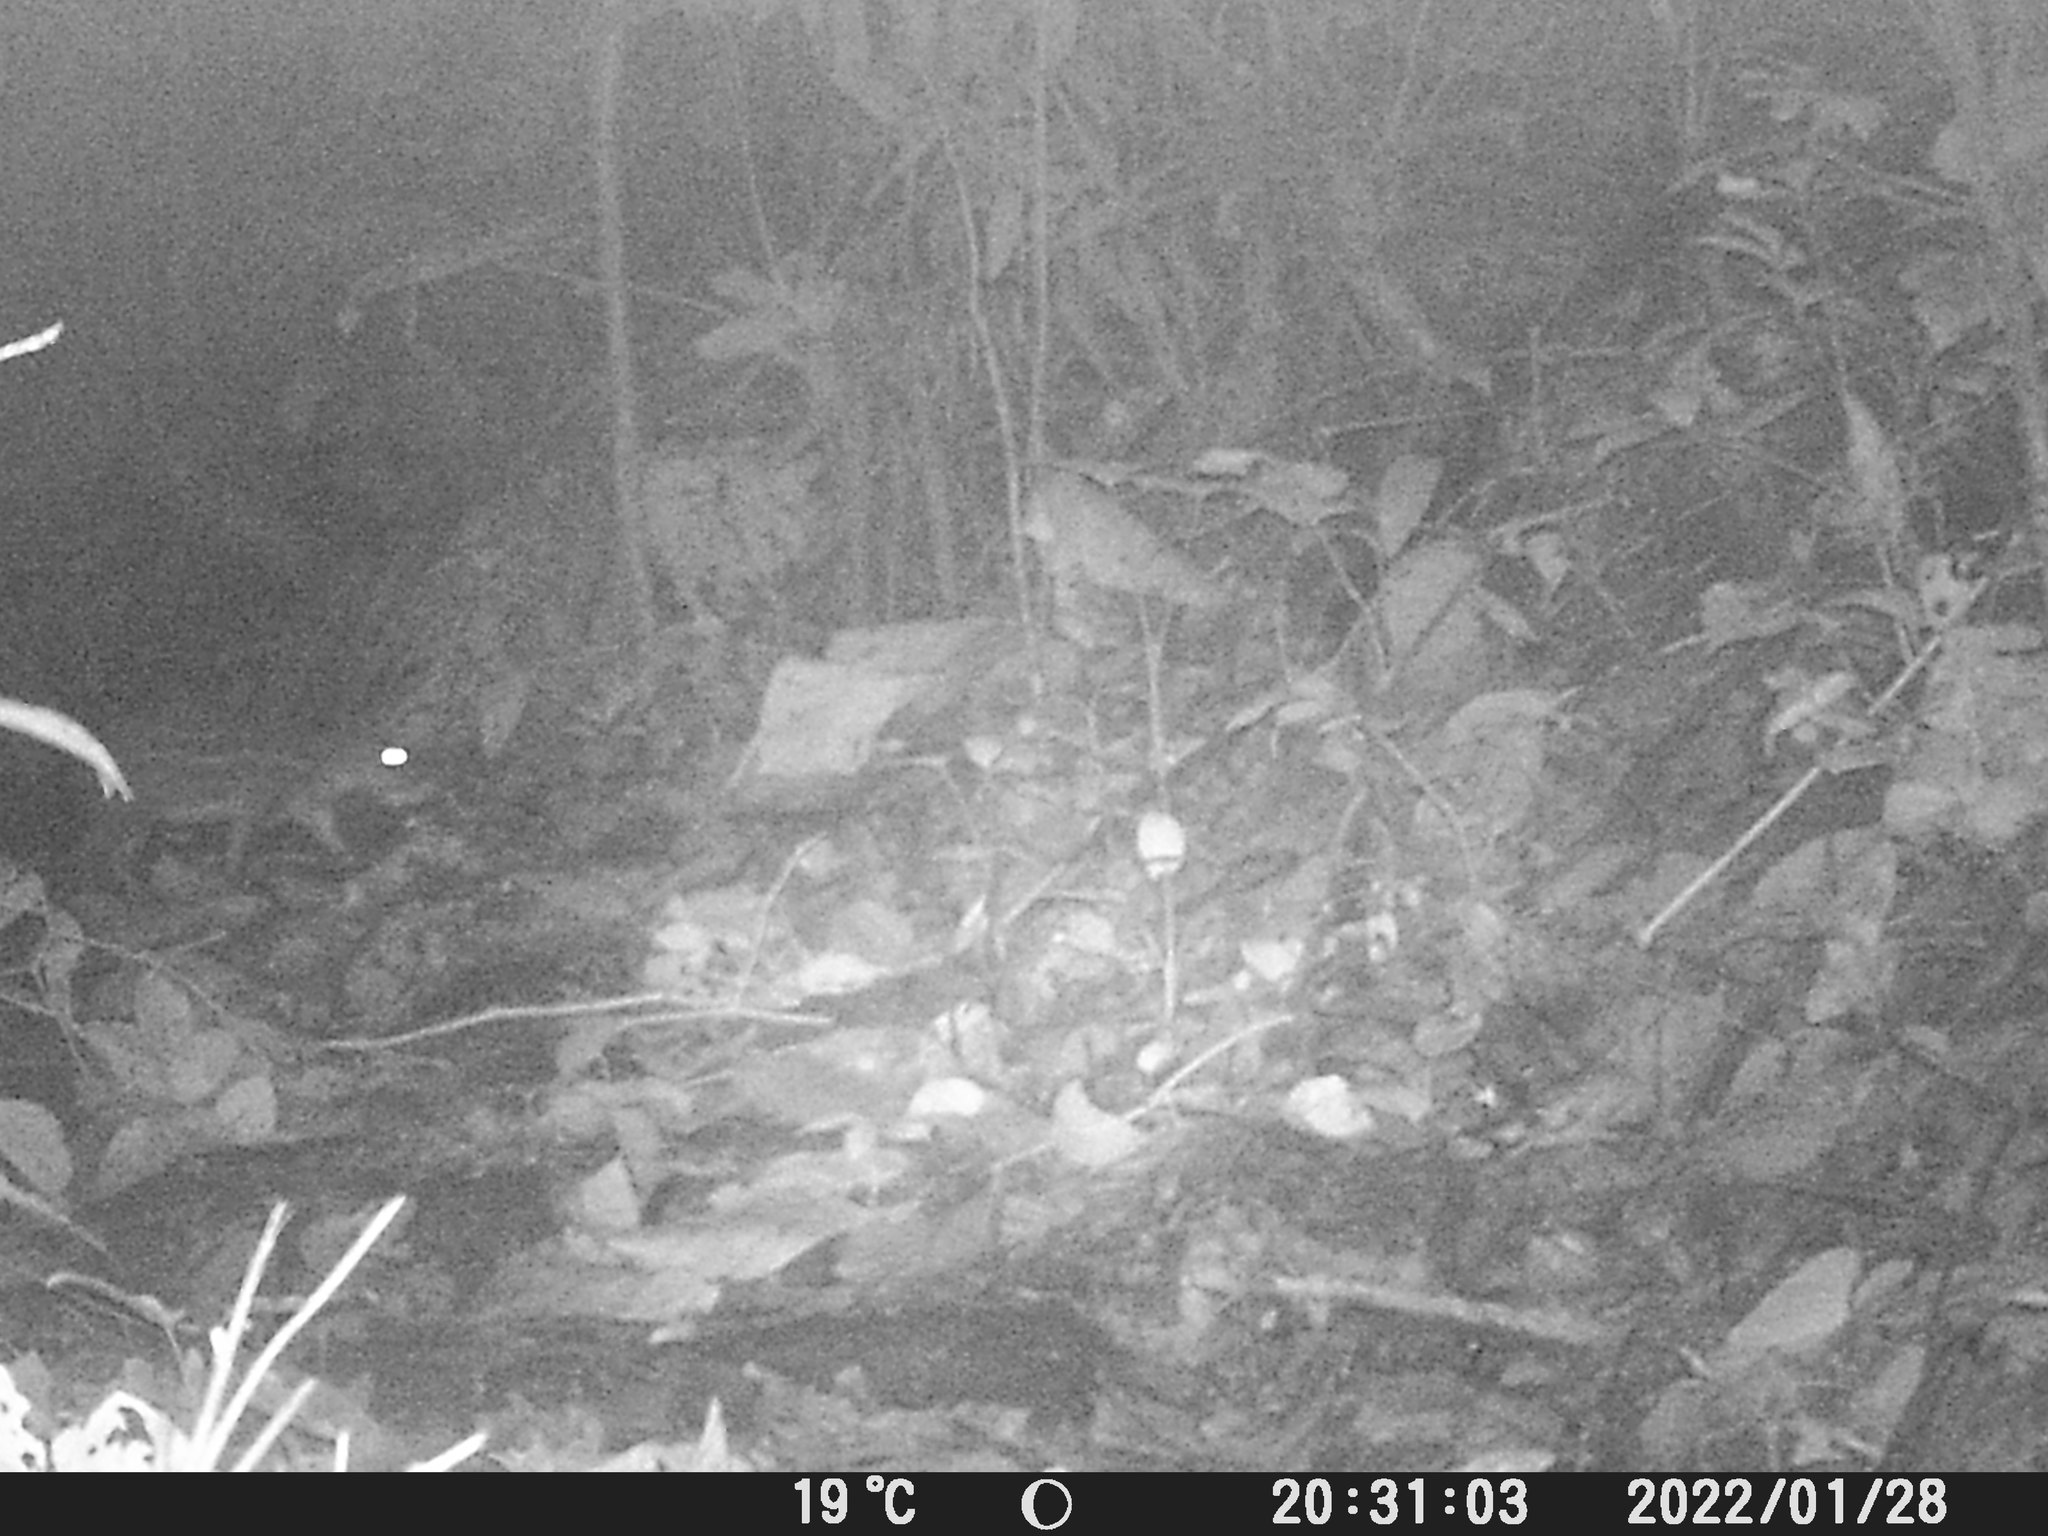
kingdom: Animalia
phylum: Chordata
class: Mammalia
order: Rodentia
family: Cuniculidae
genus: Cuniculus
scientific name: Cuniculus paca
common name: Lowland paca
